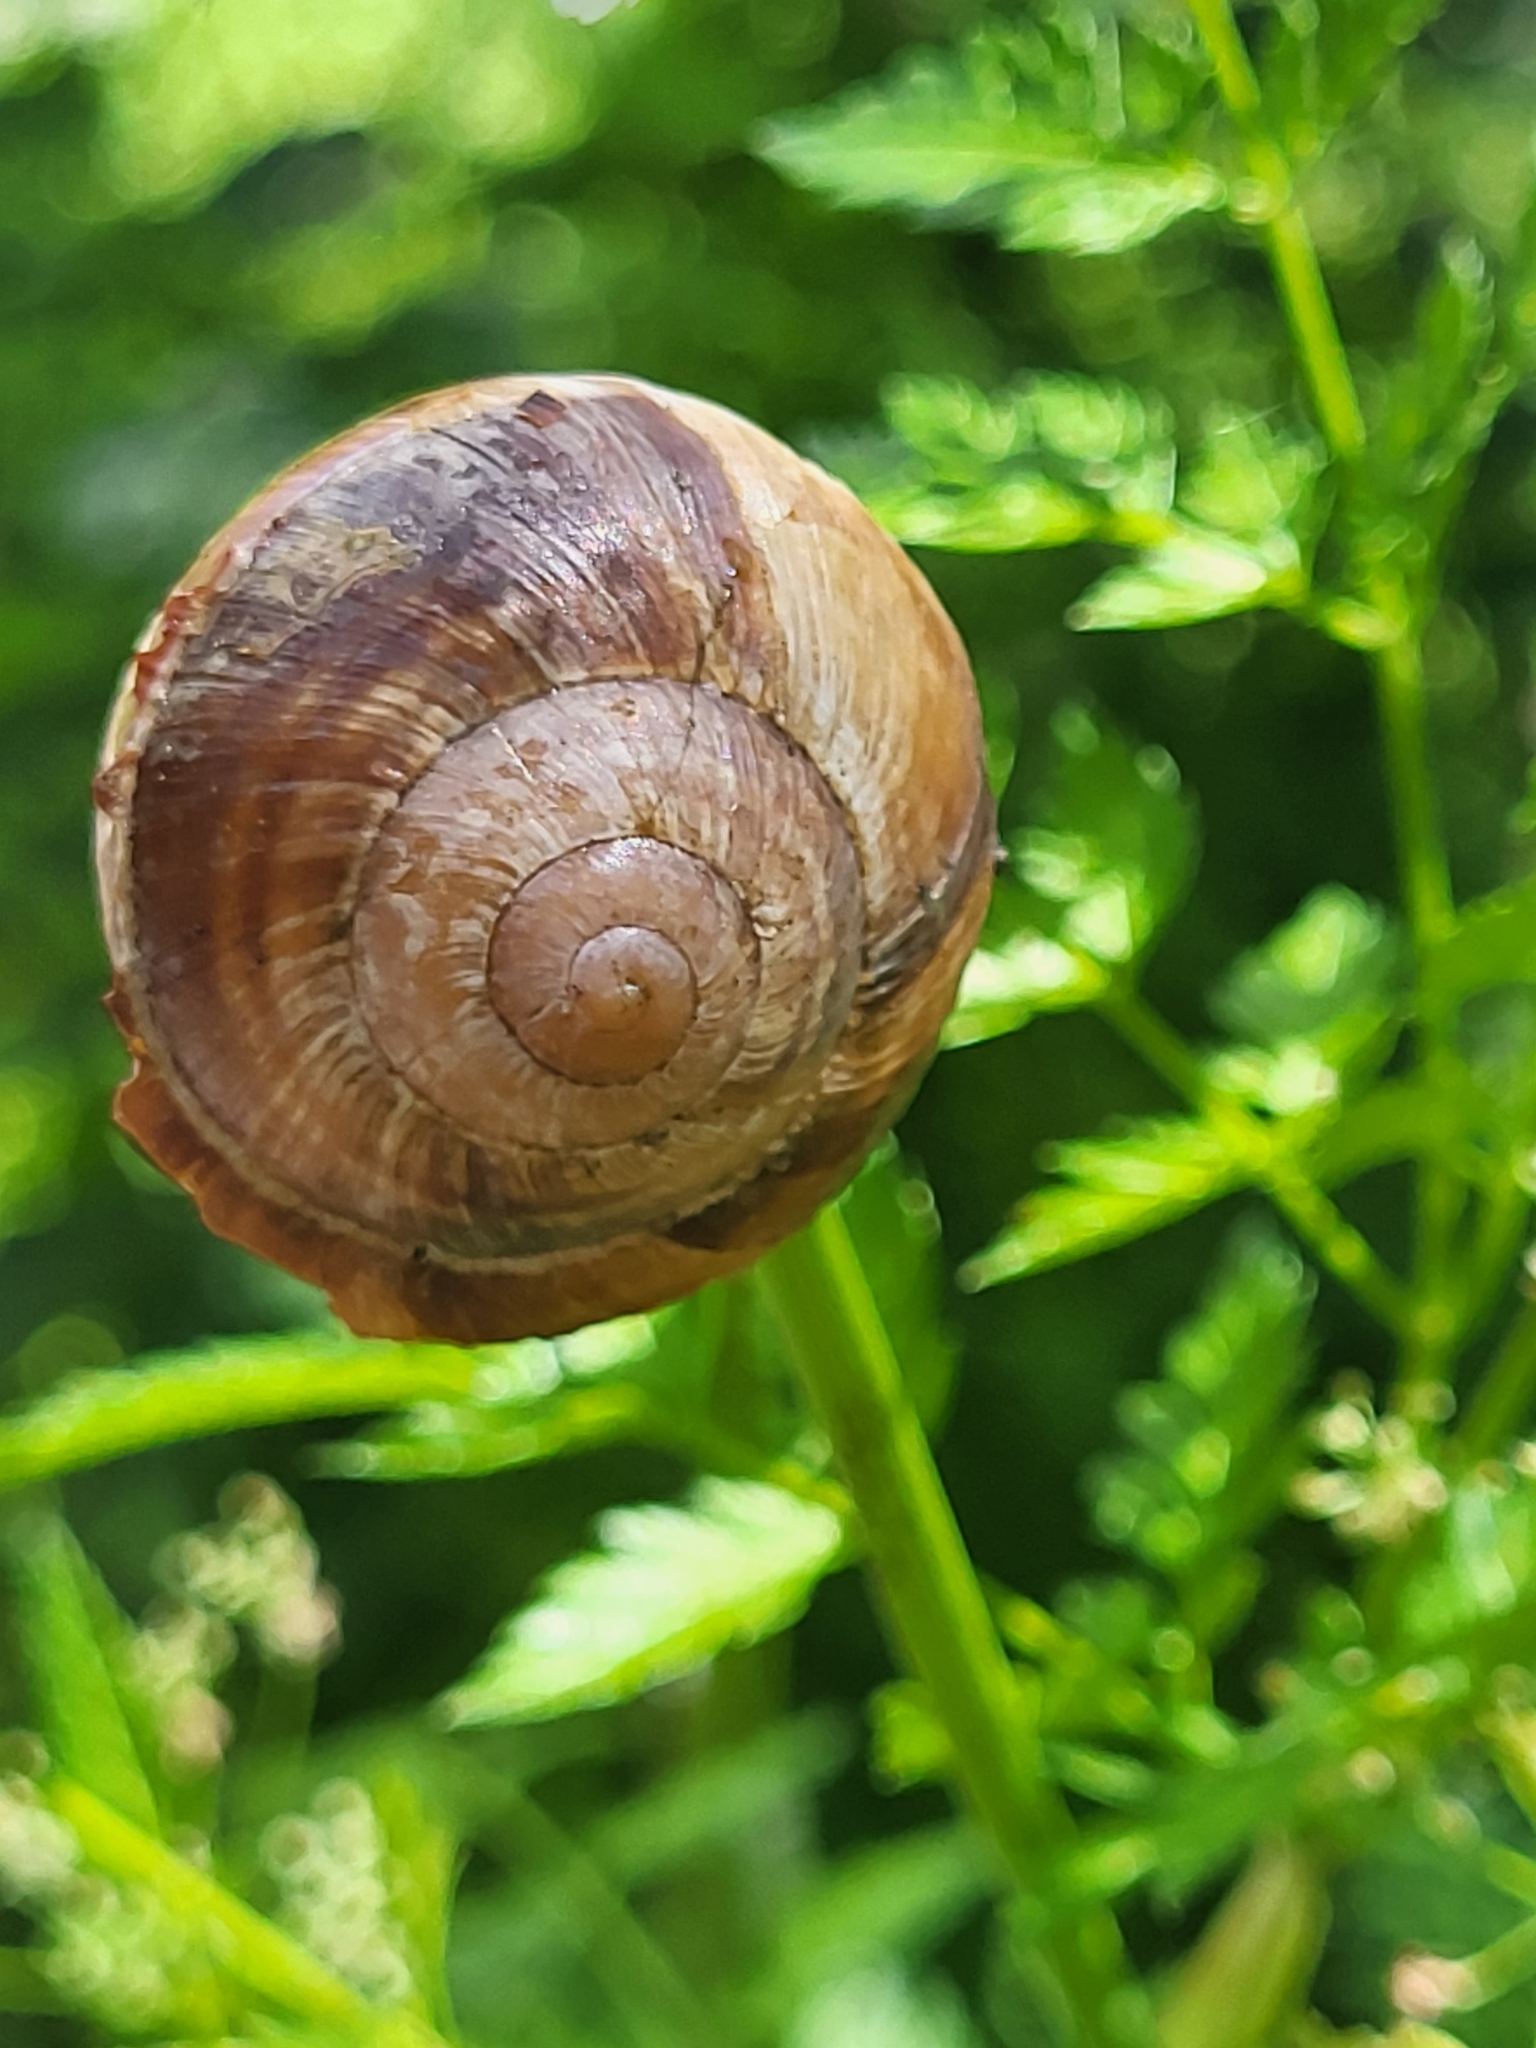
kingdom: Animalia
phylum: Mollusca
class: Gastropoda
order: Stylommatophora
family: Helicidae
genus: Helix
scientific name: Helix lucorum
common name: Turkish snail
